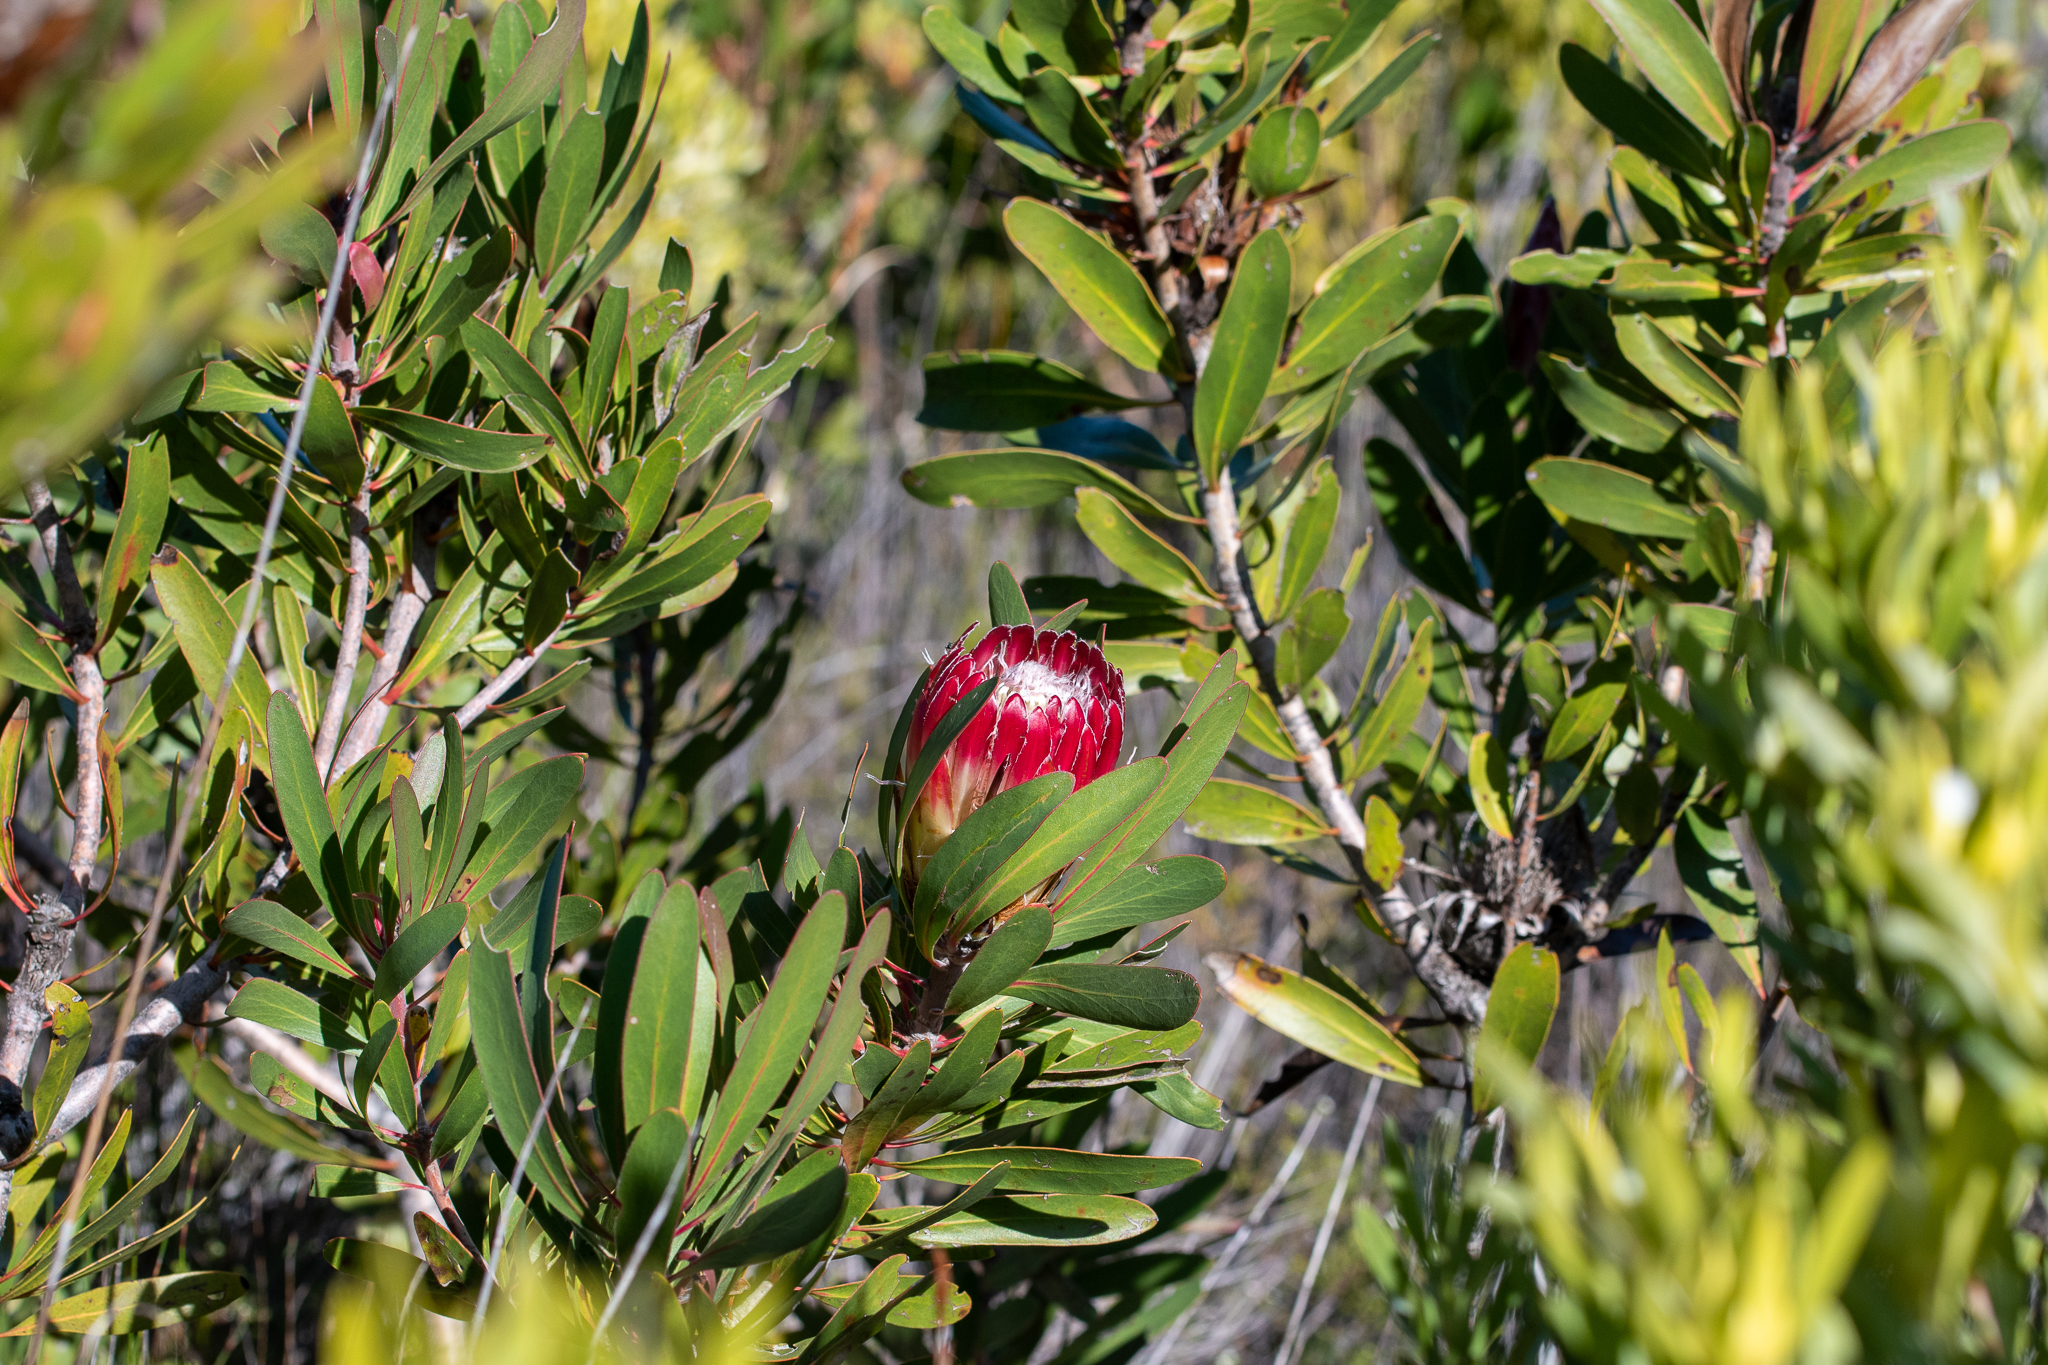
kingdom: Plantae
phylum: Tracheophyta
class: Magnoliopsida
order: Proteales
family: Proteaceae
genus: Protea
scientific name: Protea obtusifolia
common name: Bredasdorp sugarbush
